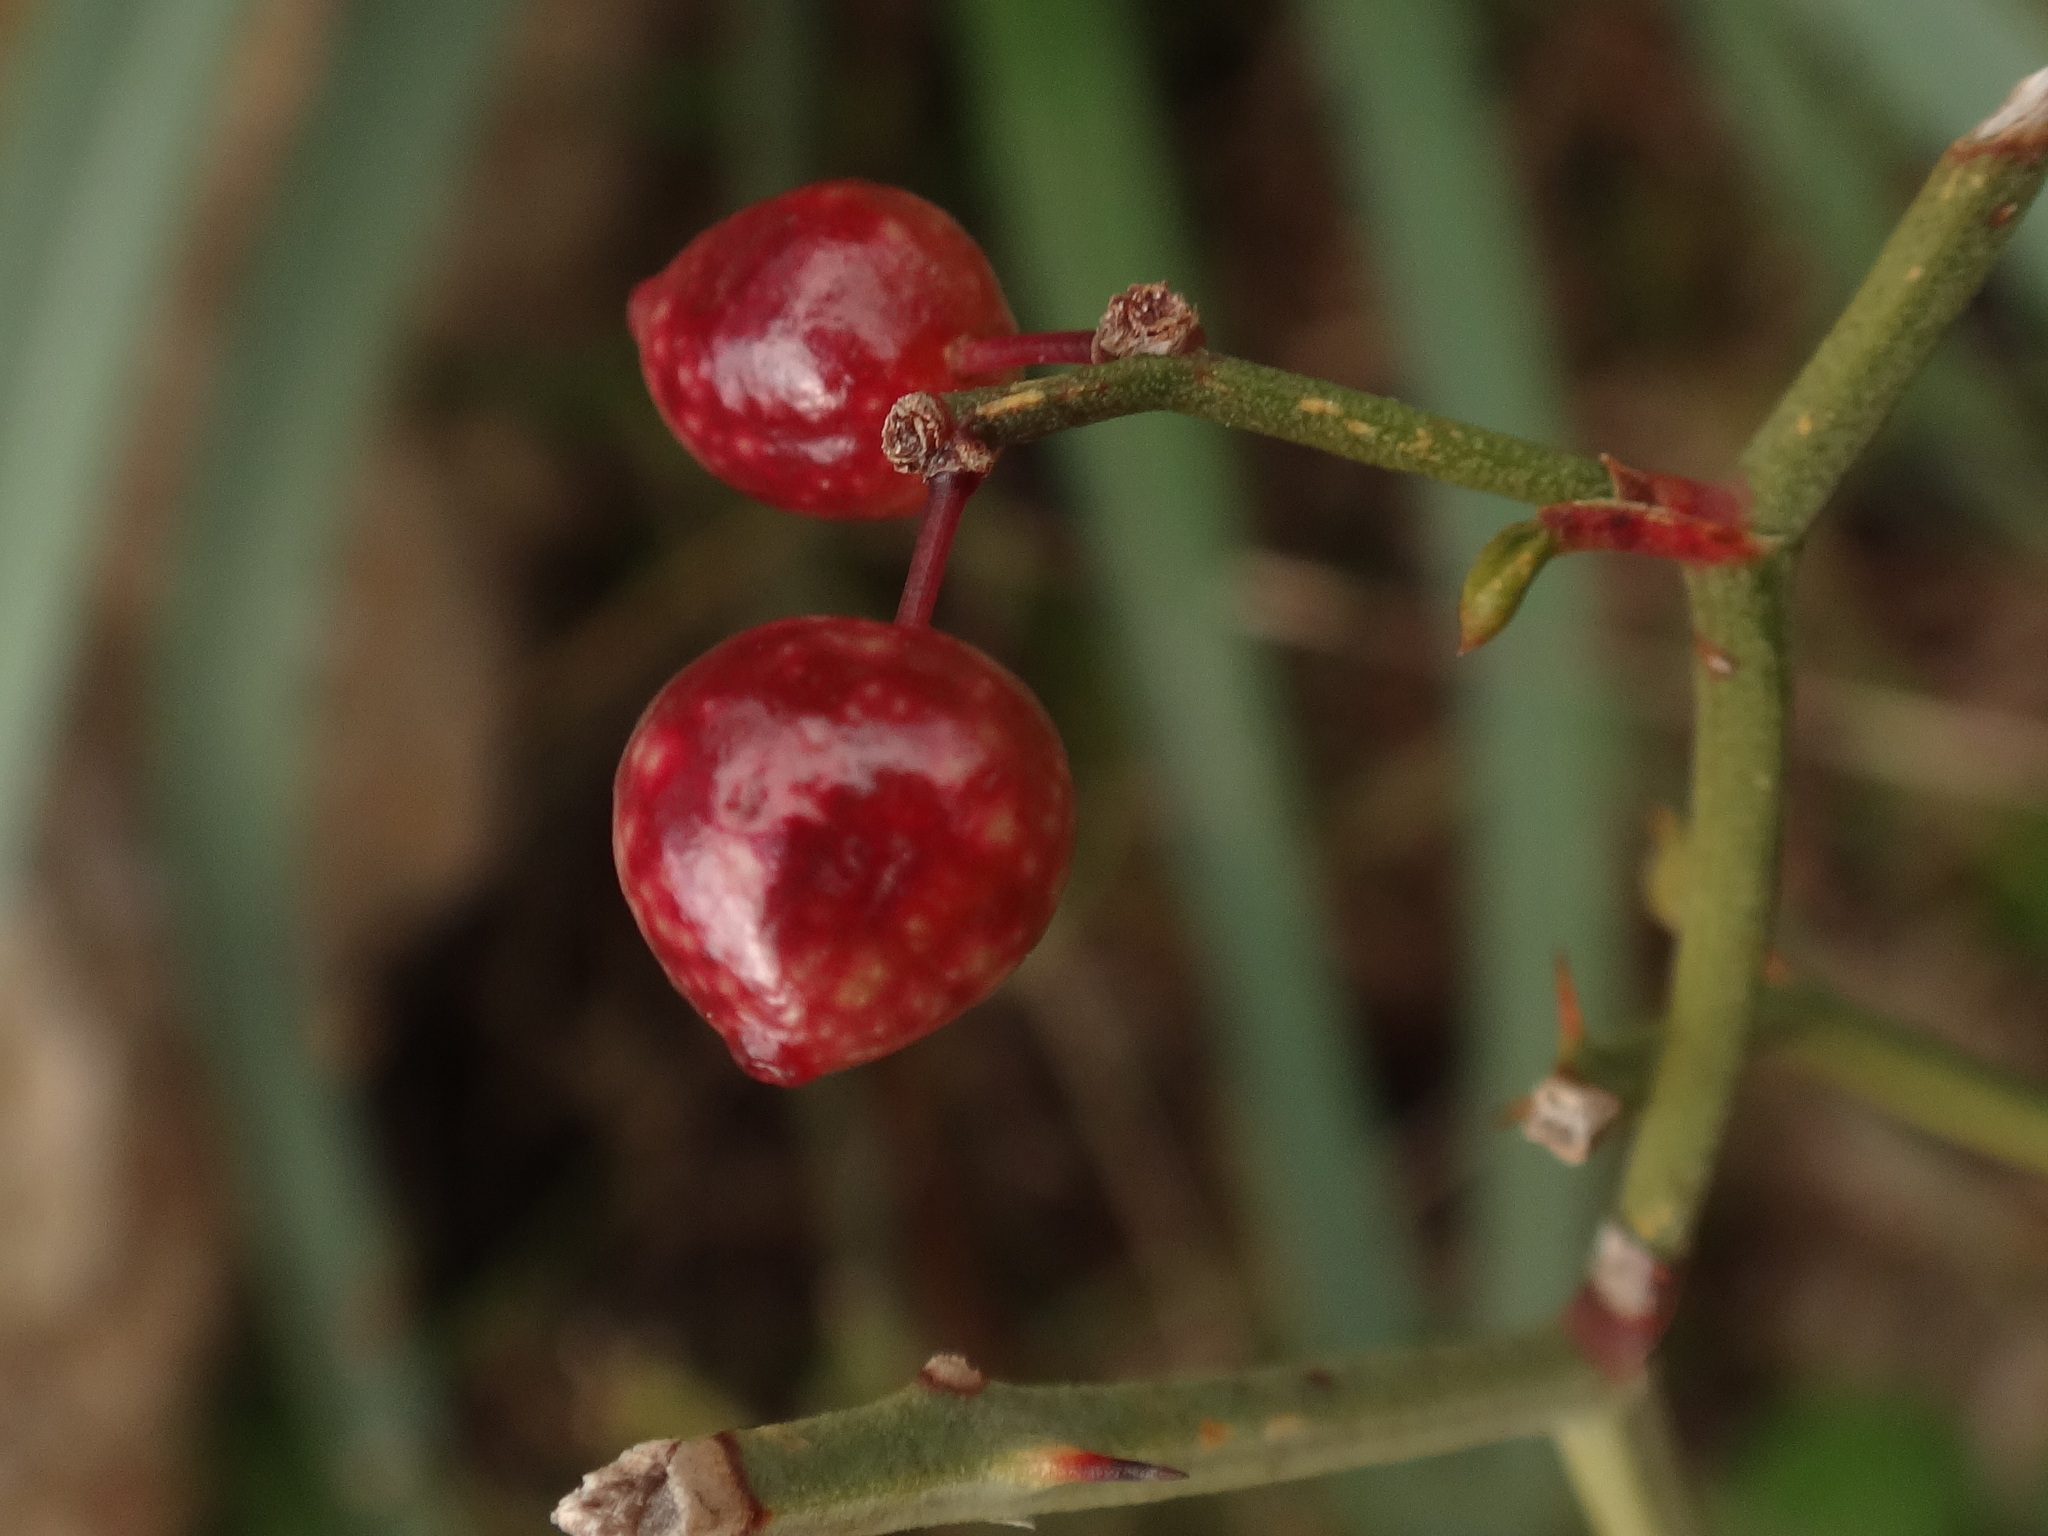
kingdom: Plantae
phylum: Tracheophyta
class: Liliopsida
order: Liliales
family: Smilacaceae
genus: Smilax
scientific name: Smilax aspera
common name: Common smilax
